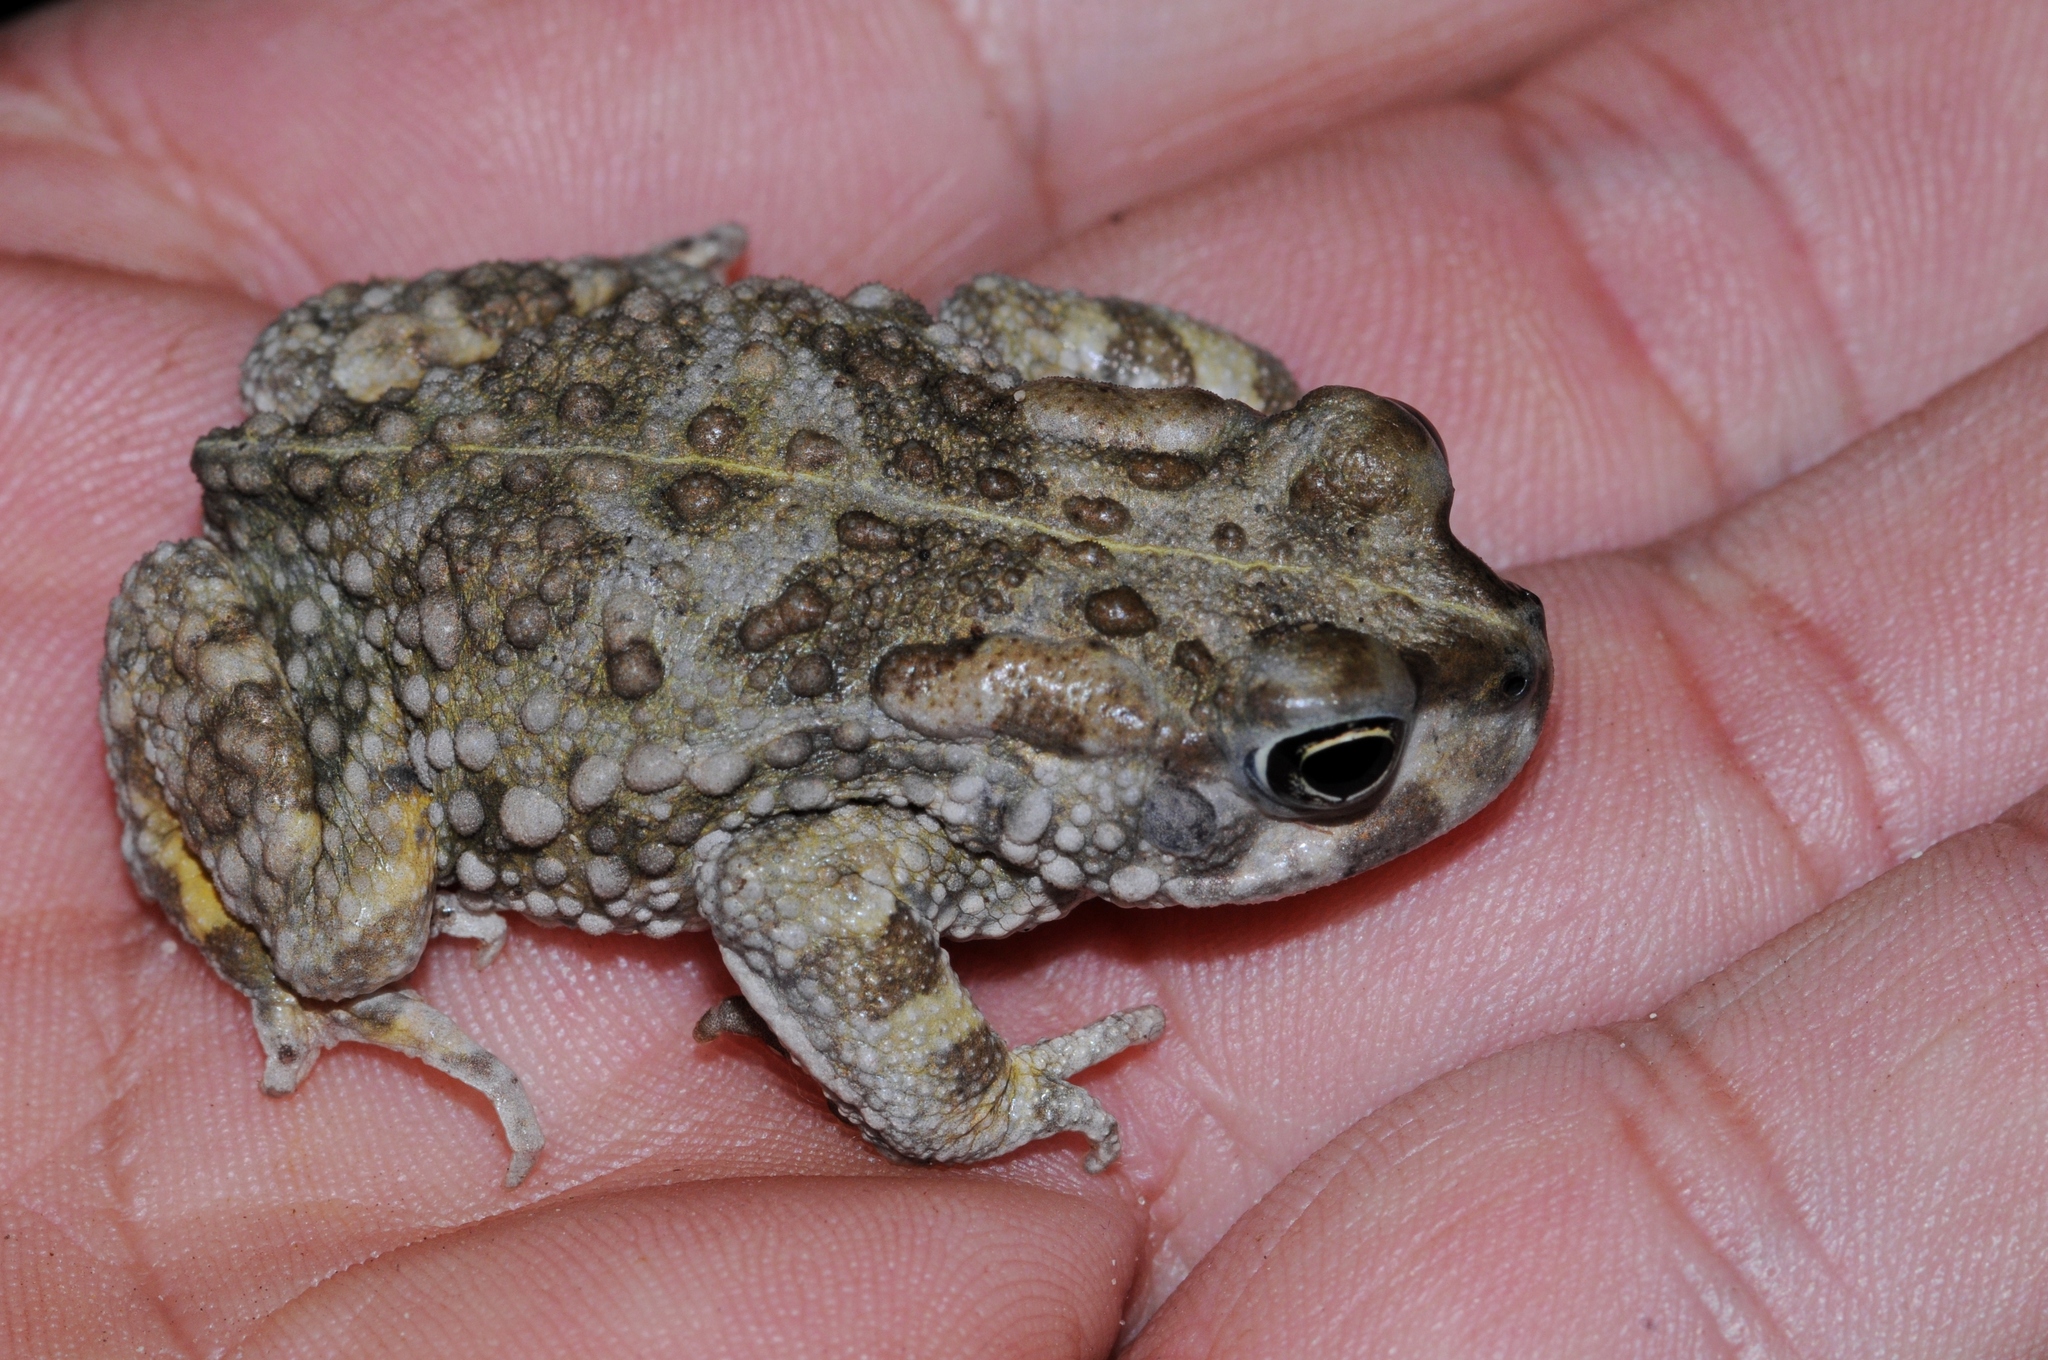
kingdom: Animalia
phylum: Chordata
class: Amphibia
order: Anura
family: Bufonidae
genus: Vandijkophrynus
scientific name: Vandijkophrynus angusticeps
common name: Sand toad
